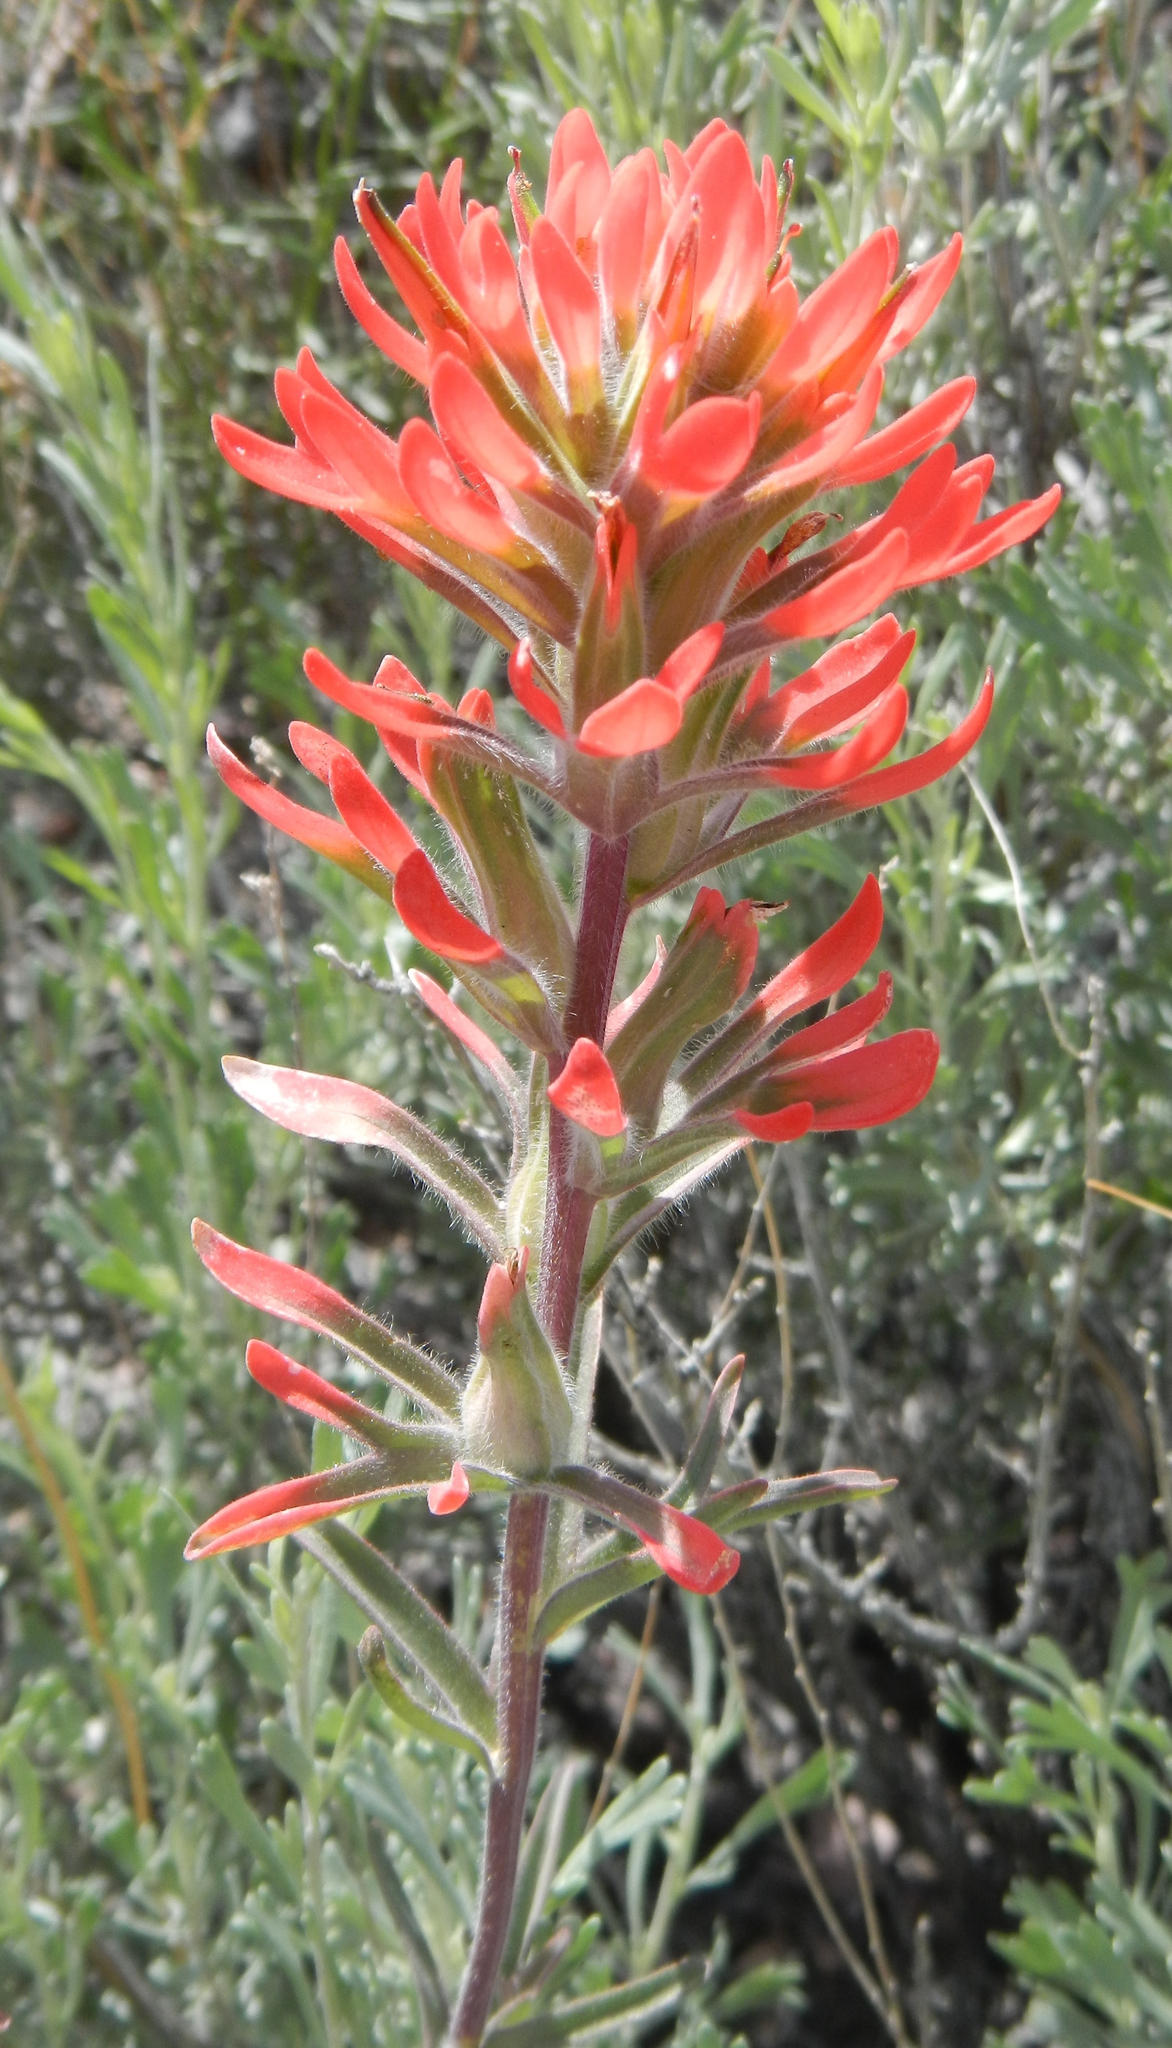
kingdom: Plantae
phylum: Tracheophyta
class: Magnoliopsida
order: Lamiales
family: Orobanchaceae
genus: Castilleja
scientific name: Castilleja chromosa
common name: Desert paintbrush
